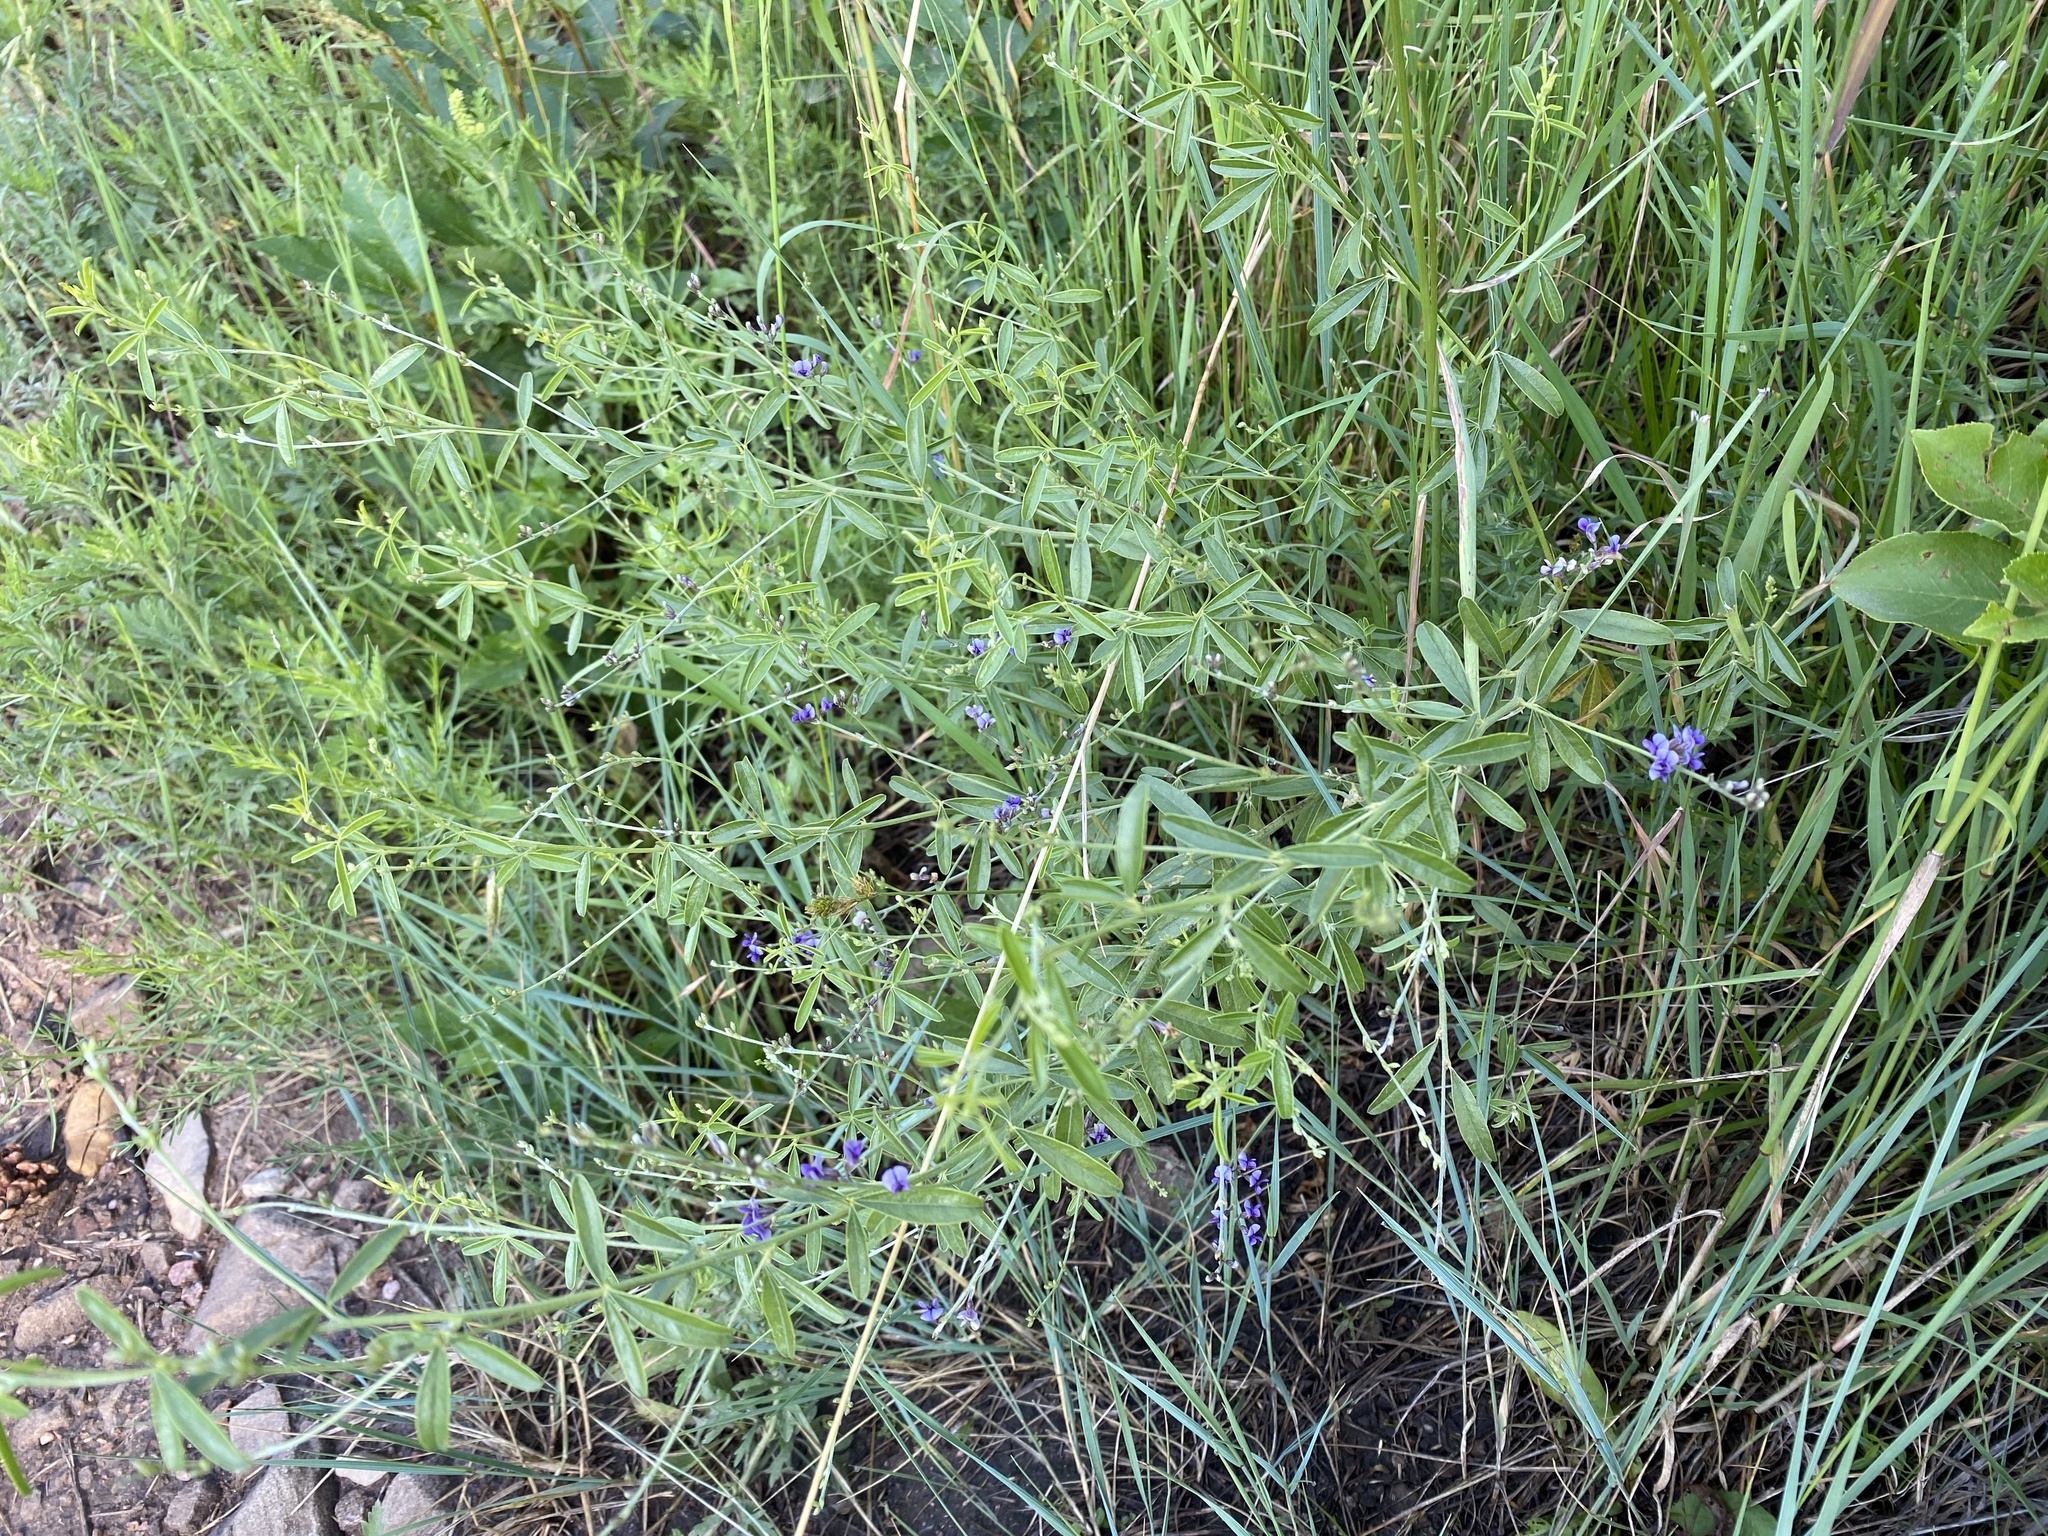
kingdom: Plantae
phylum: Tracheophyta
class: Magnoliopsida
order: Fabales
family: Fabaceae
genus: Pediomelum
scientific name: Pediomelum tenuiflorum
